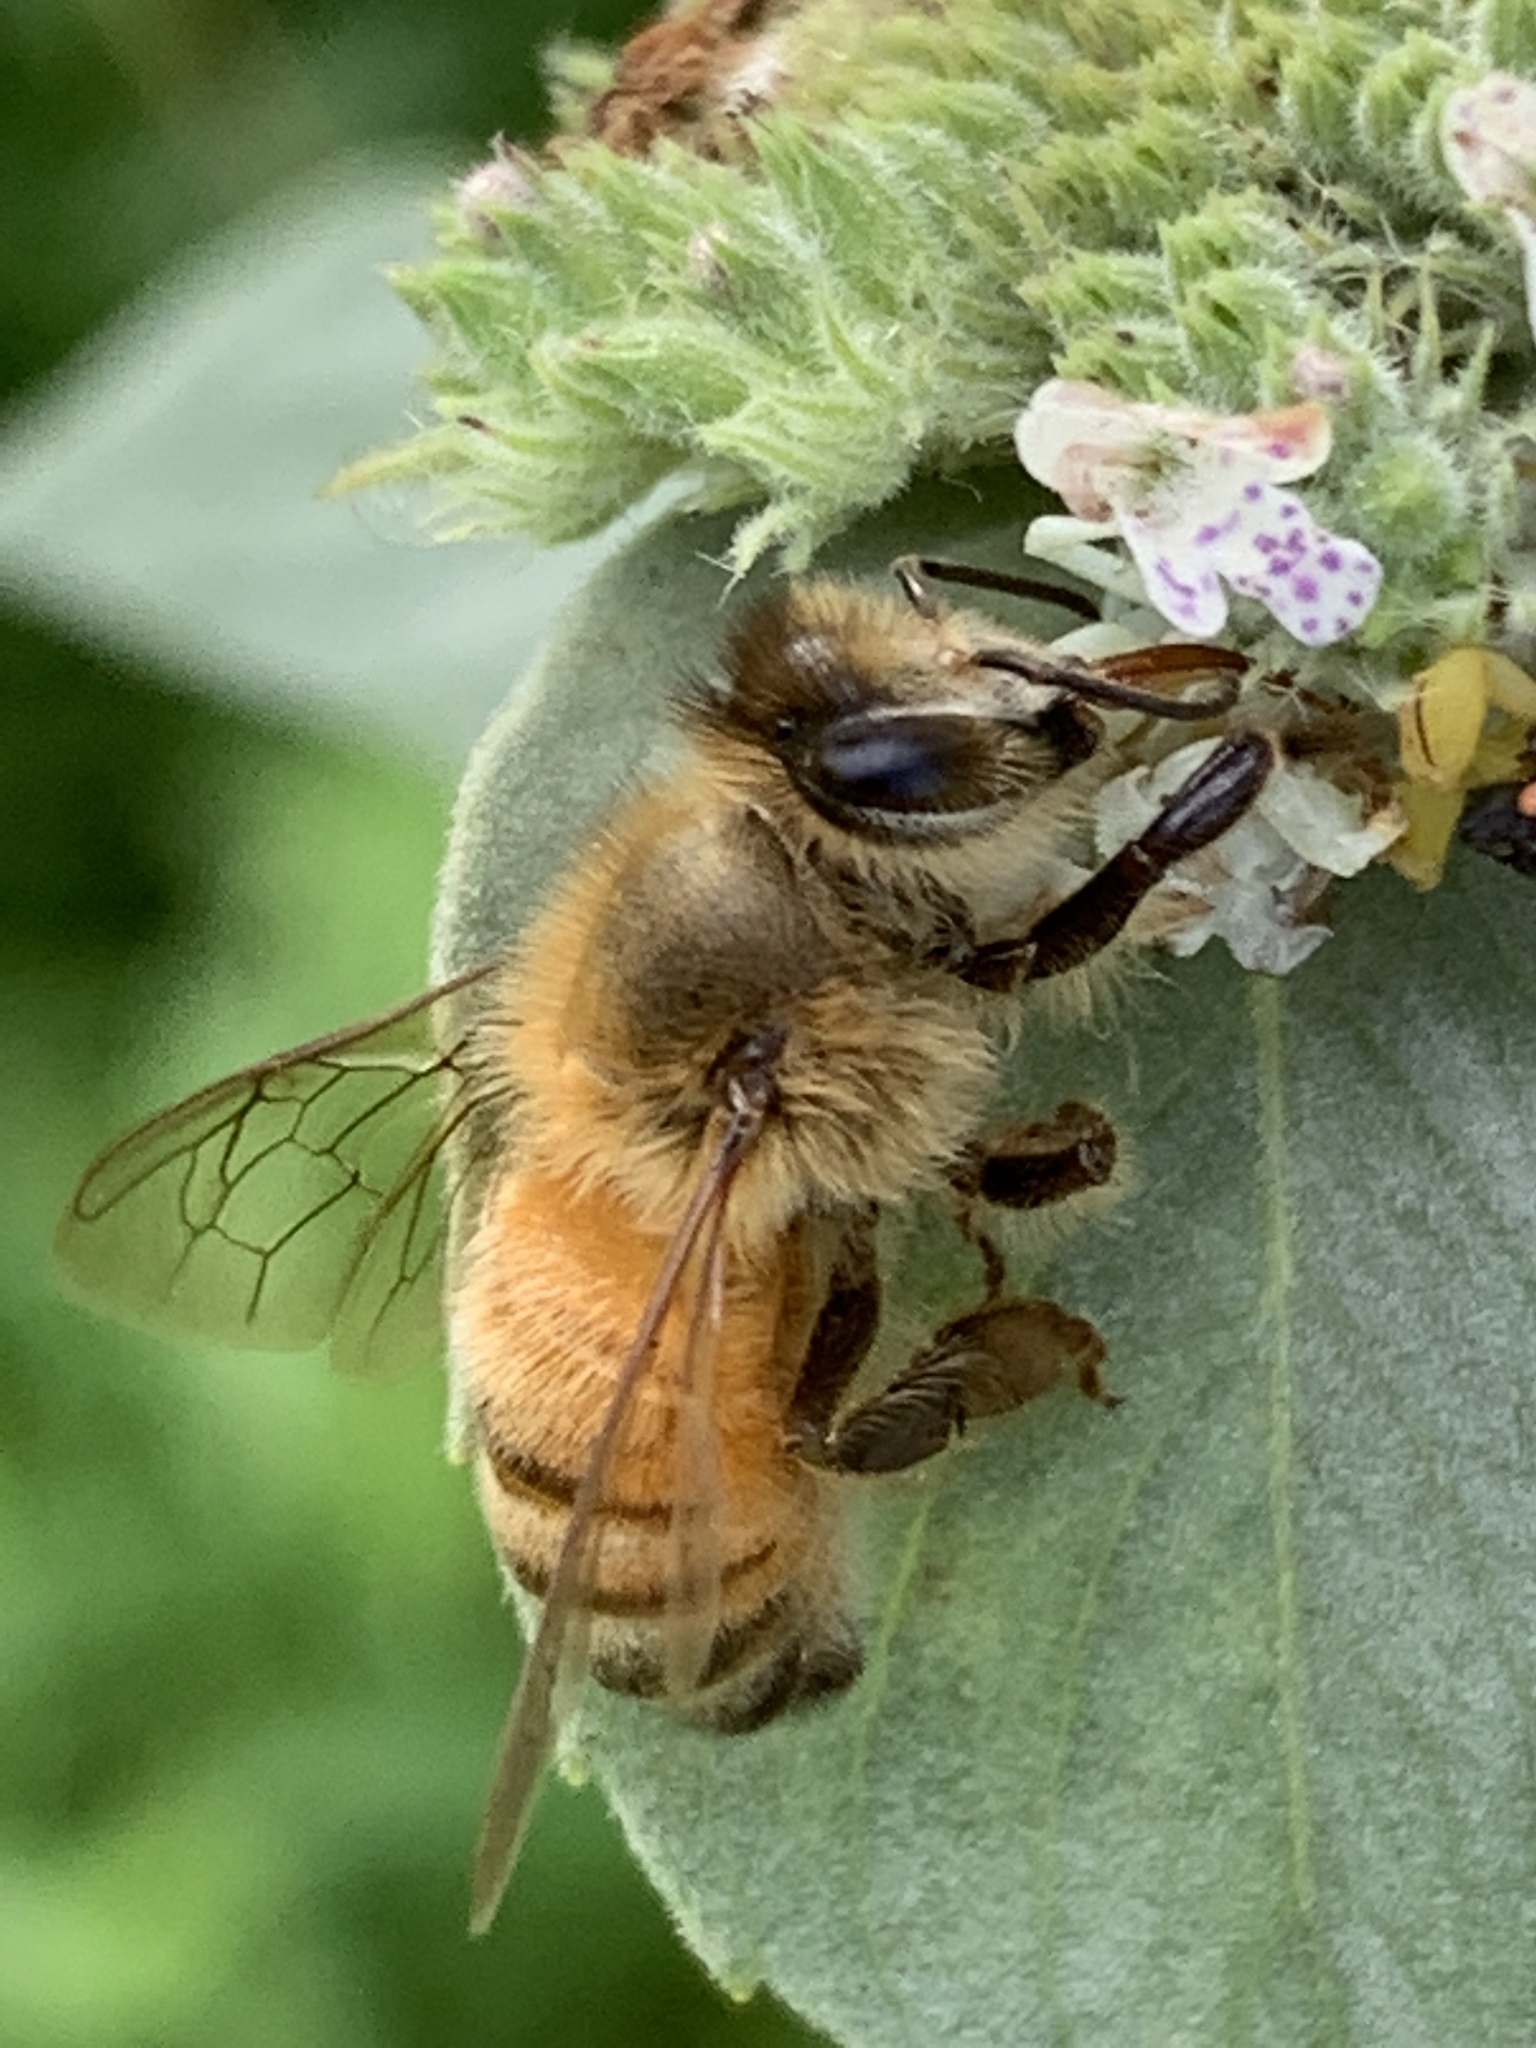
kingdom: Animalia
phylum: Arthropoda
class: Insecta
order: Hymenoptera
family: Apidae
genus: Apis
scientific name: Apis mellifera
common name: Honey bee
